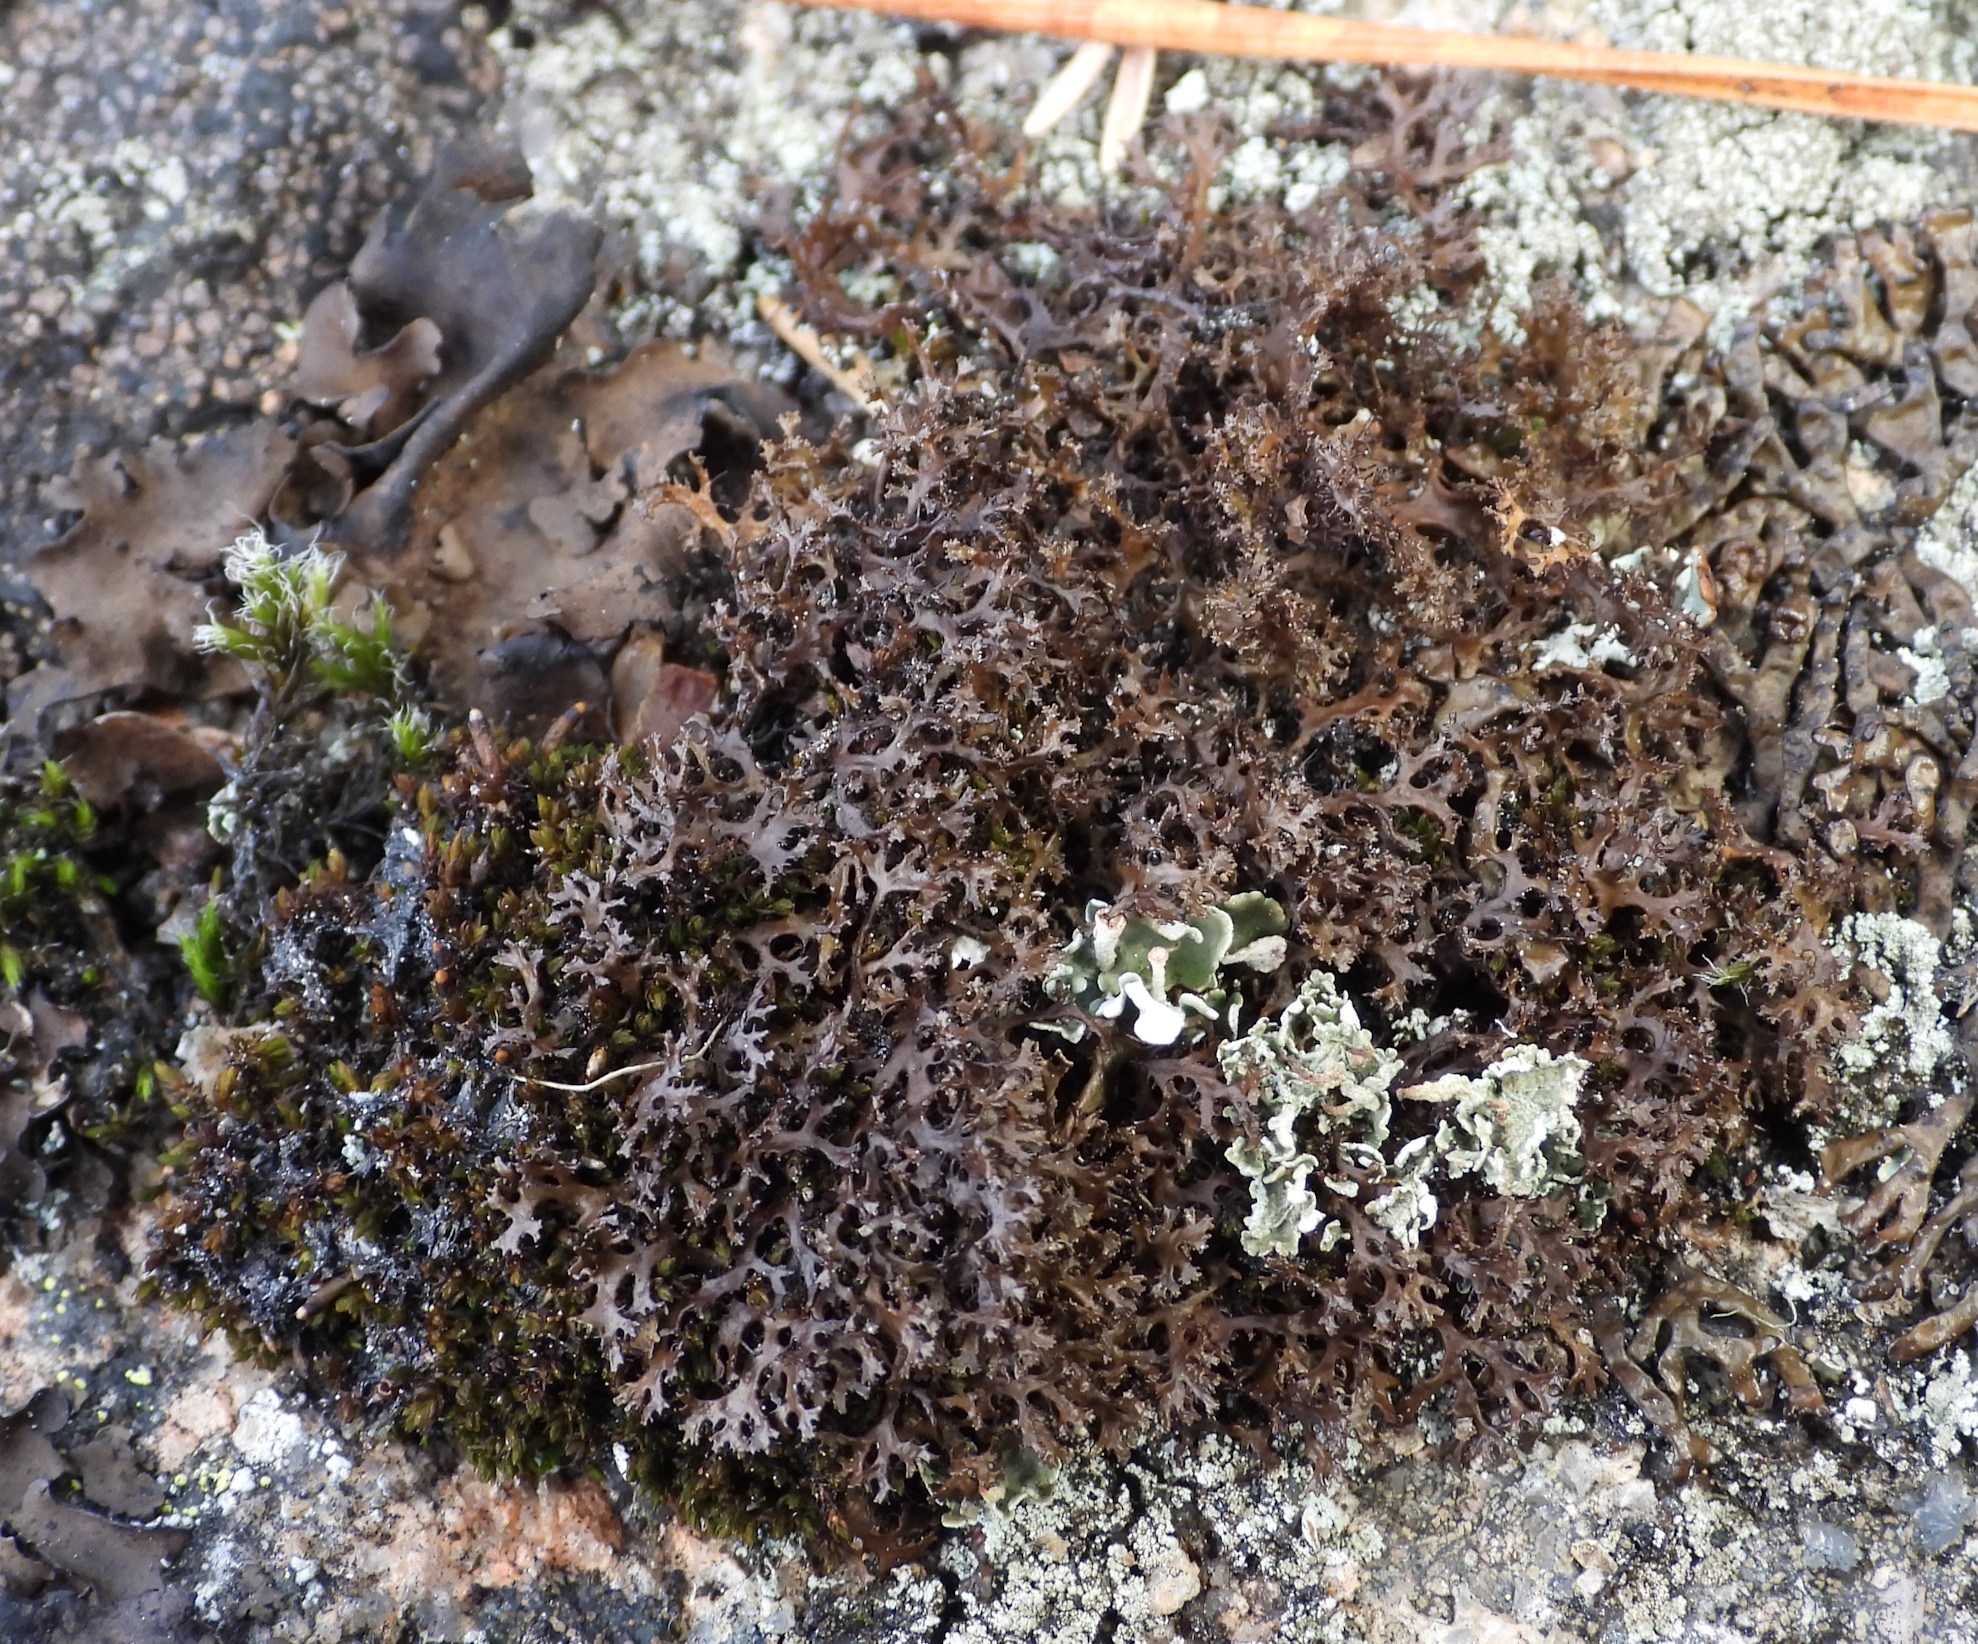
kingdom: Fungi
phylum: Ascomycota
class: Lecanoromycetes
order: Lecanorales
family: Parmeliaceae
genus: Cetraria
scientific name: Cetraria odontella
